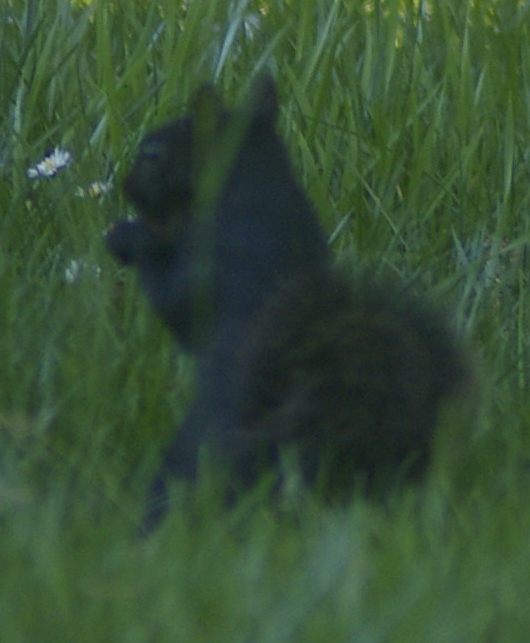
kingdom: Animalia
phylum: Chordata
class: Mammalia
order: Rodentia
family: Sciuridae
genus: Sciurus
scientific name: Sciurus carolinensis
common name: Eastern gray squirrel
